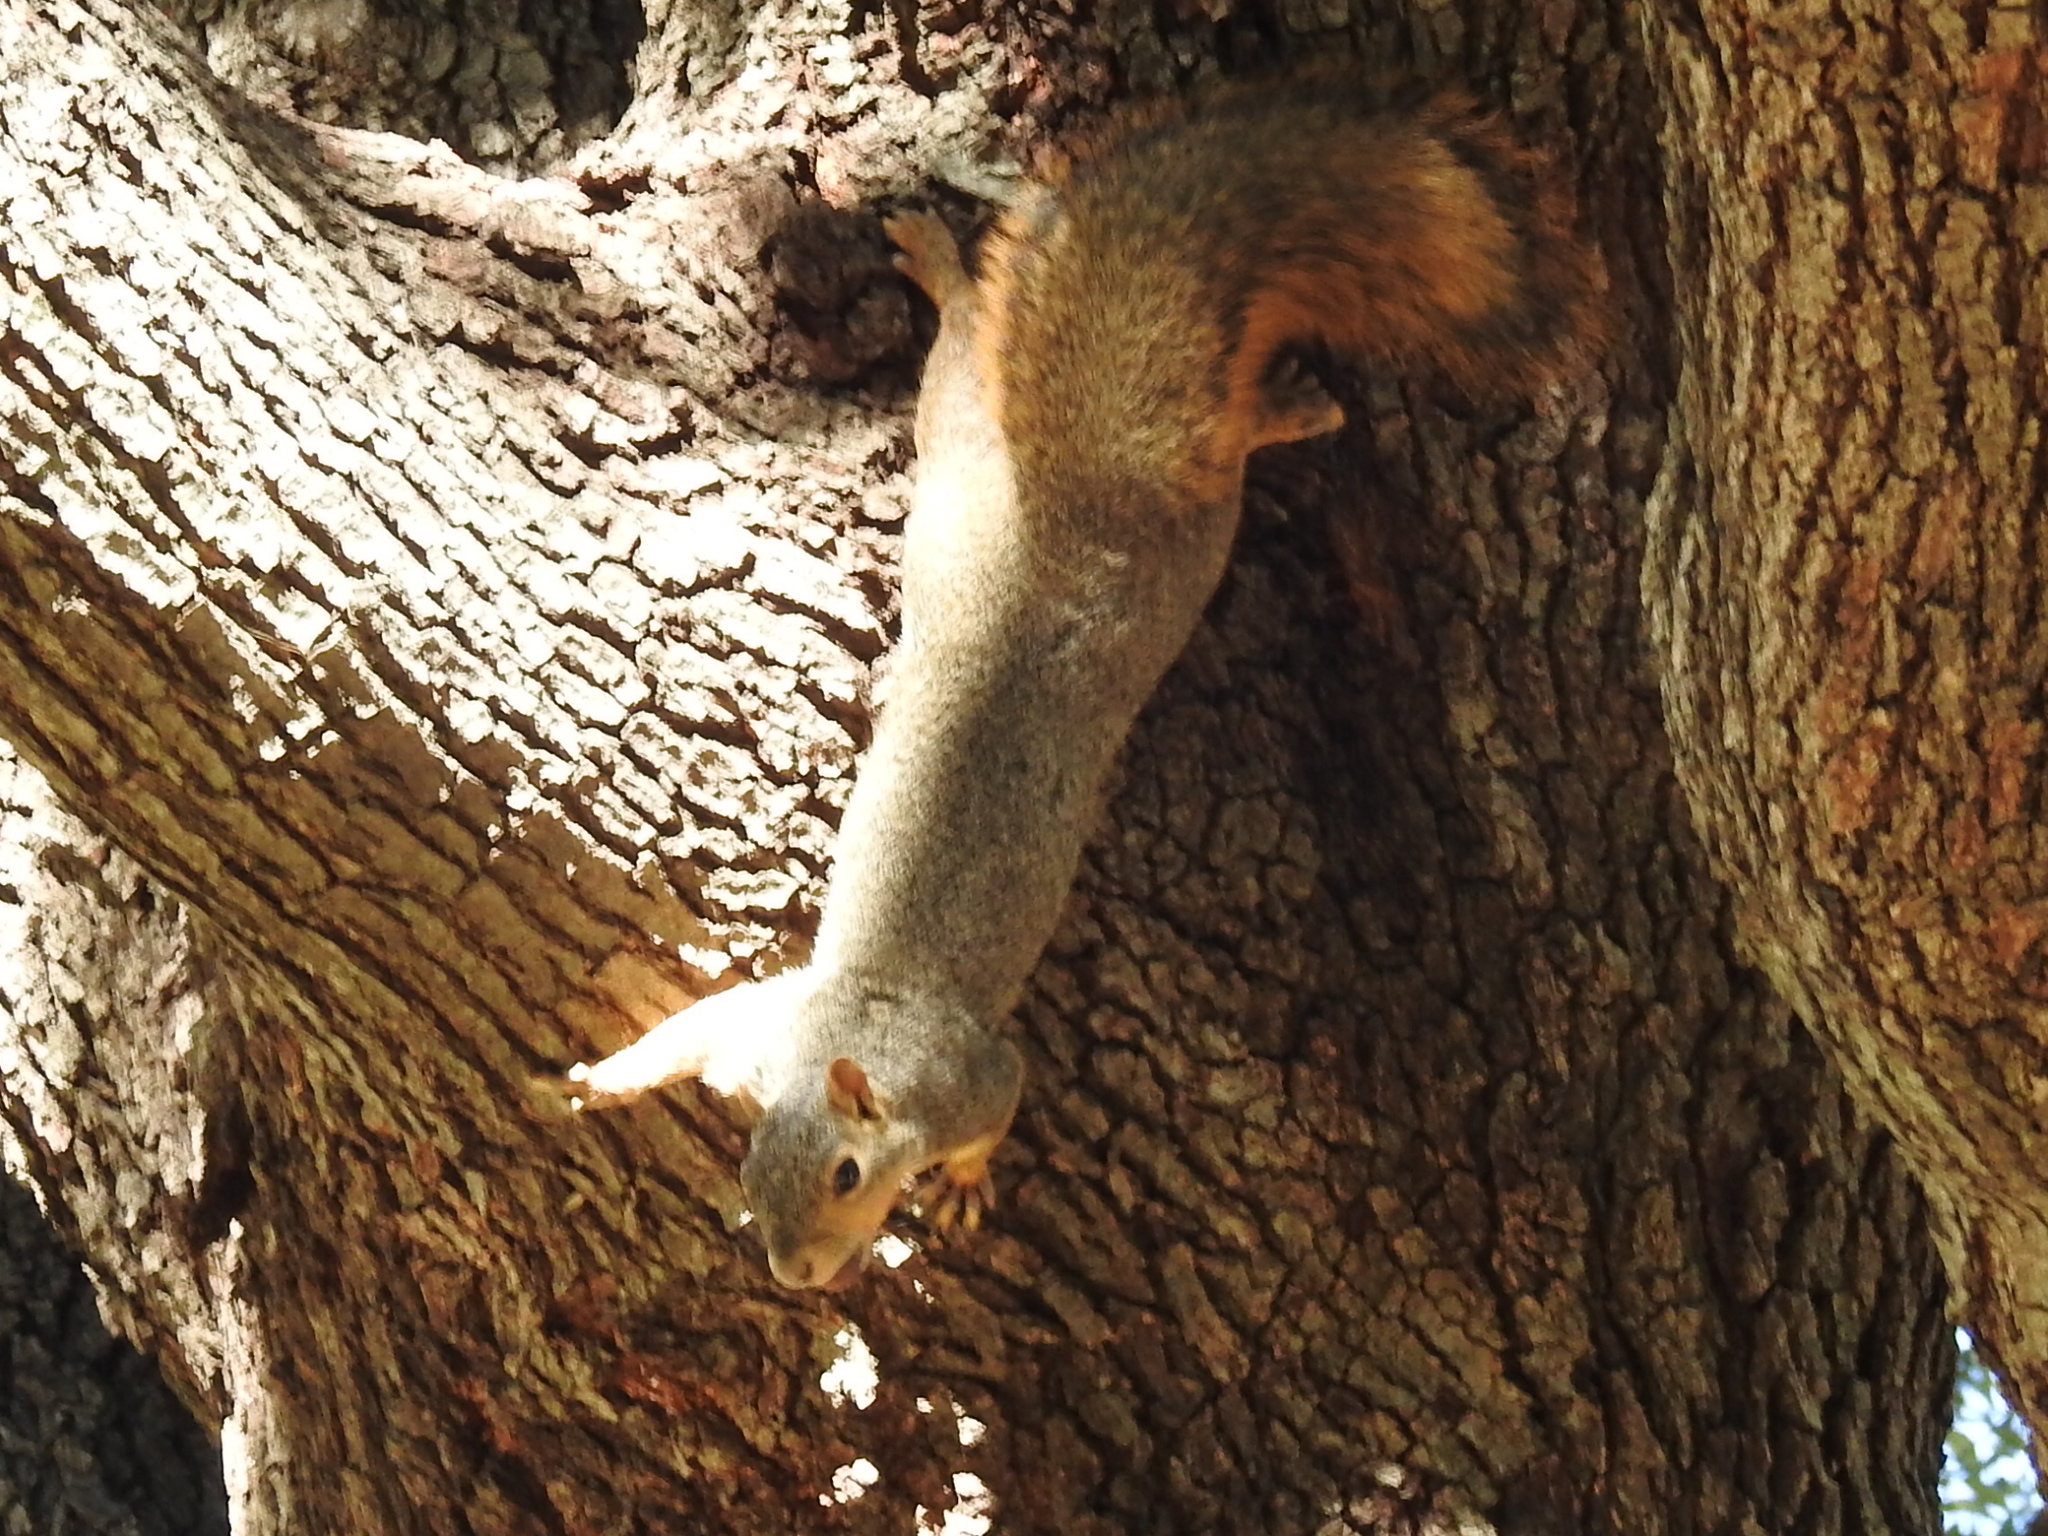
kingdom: Animalia
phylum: Chordata
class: Mammalia
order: Rodentia
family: Sciuridae
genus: Sciurus
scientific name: Sciurus niger
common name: Fox squirrel
